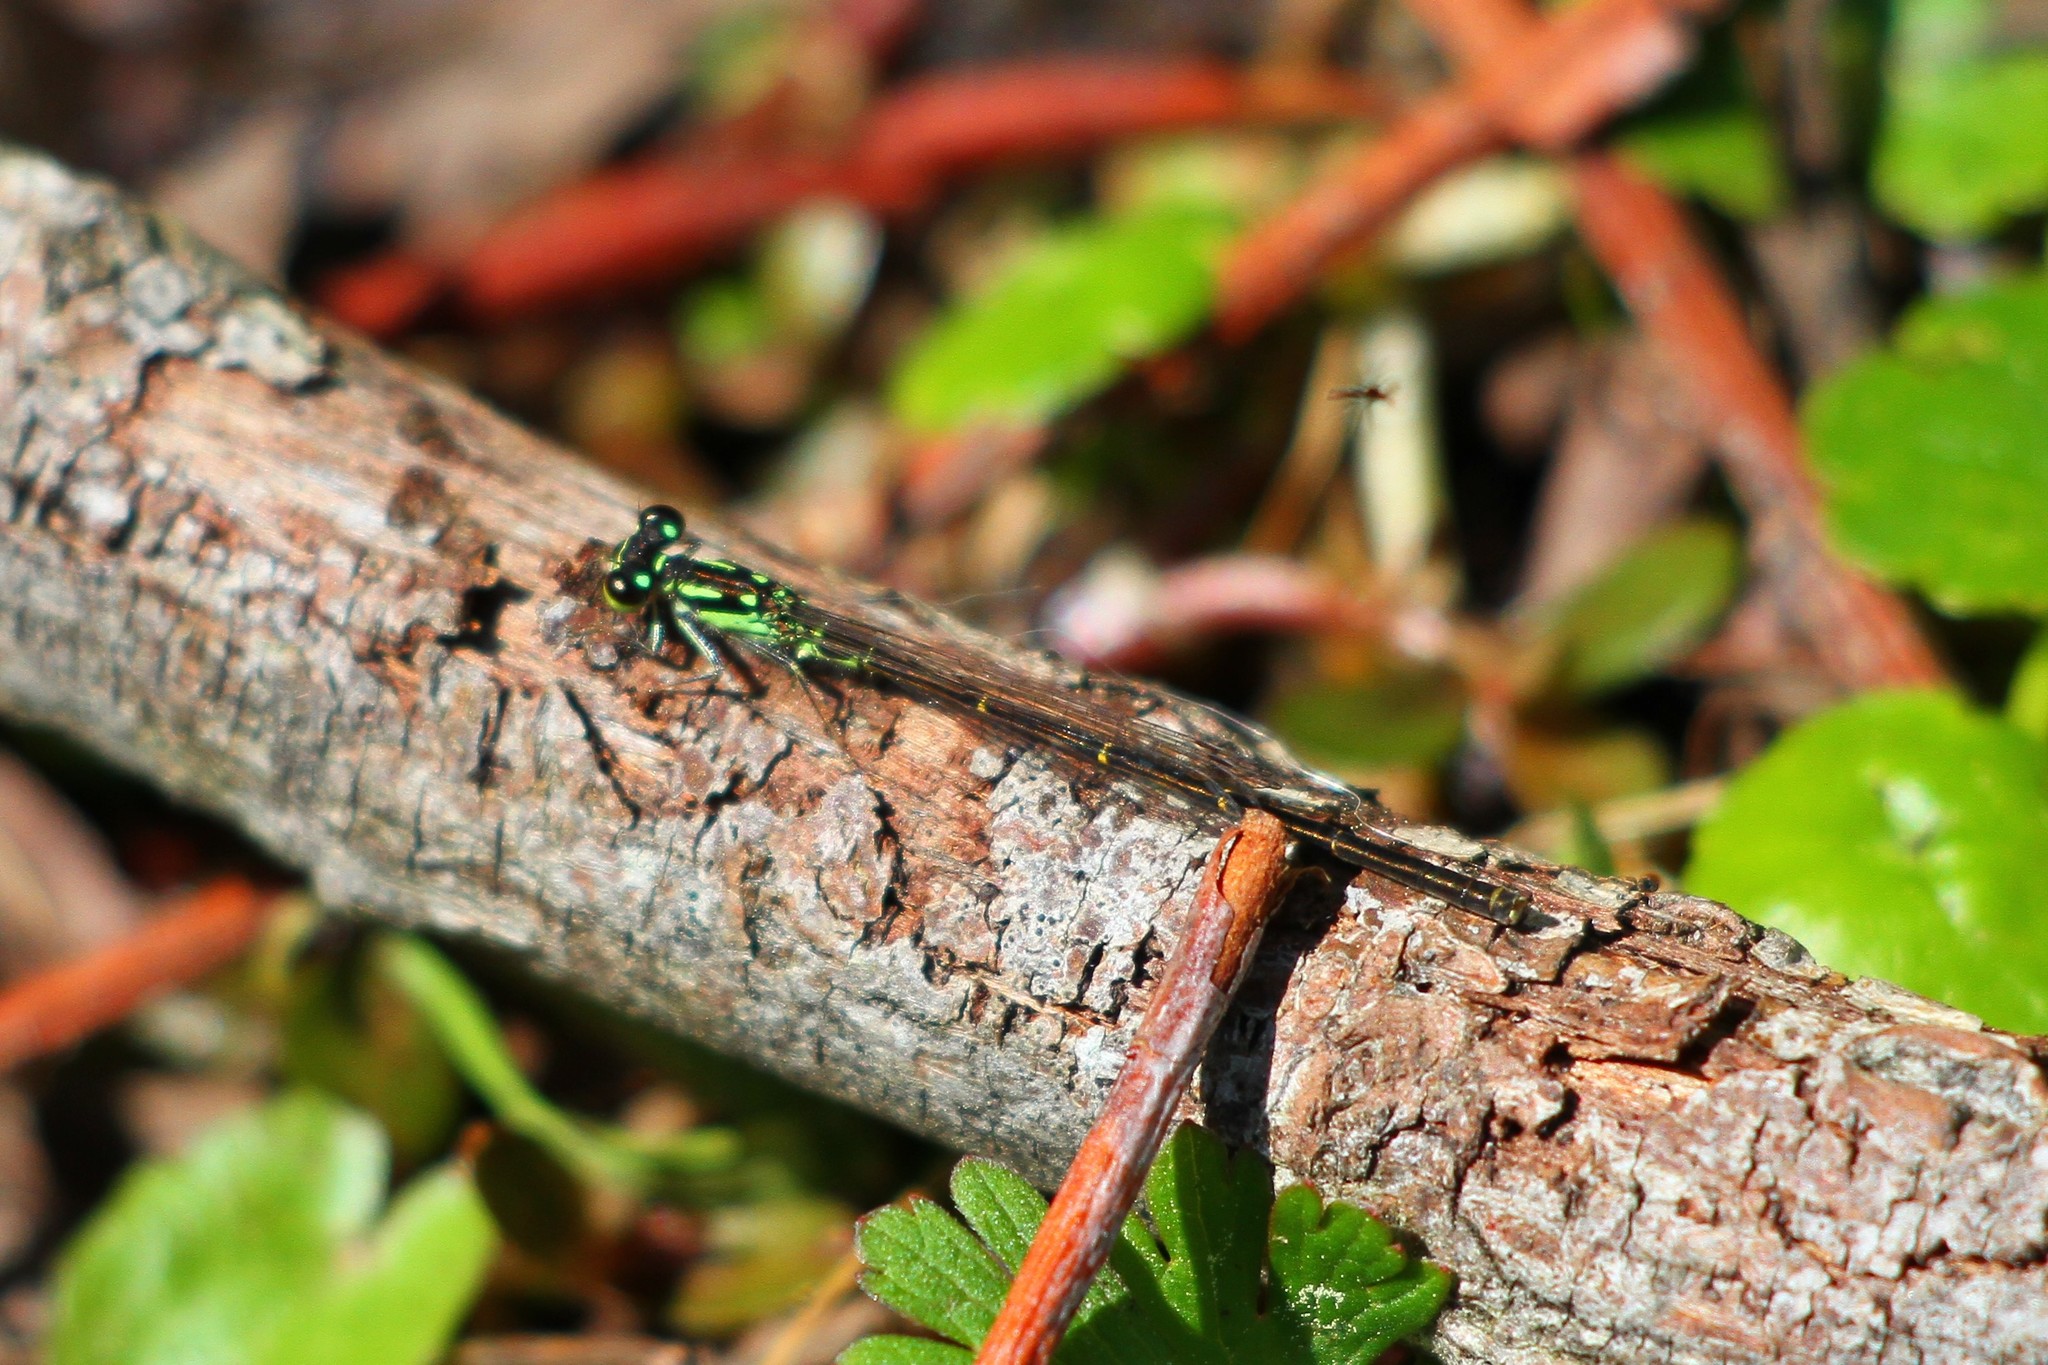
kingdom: Animalia
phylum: Arthropoda
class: Insecta
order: Odonata
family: Coenagrionidae
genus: Ischnura
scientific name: Ischnura posita
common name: Fragile forktail
